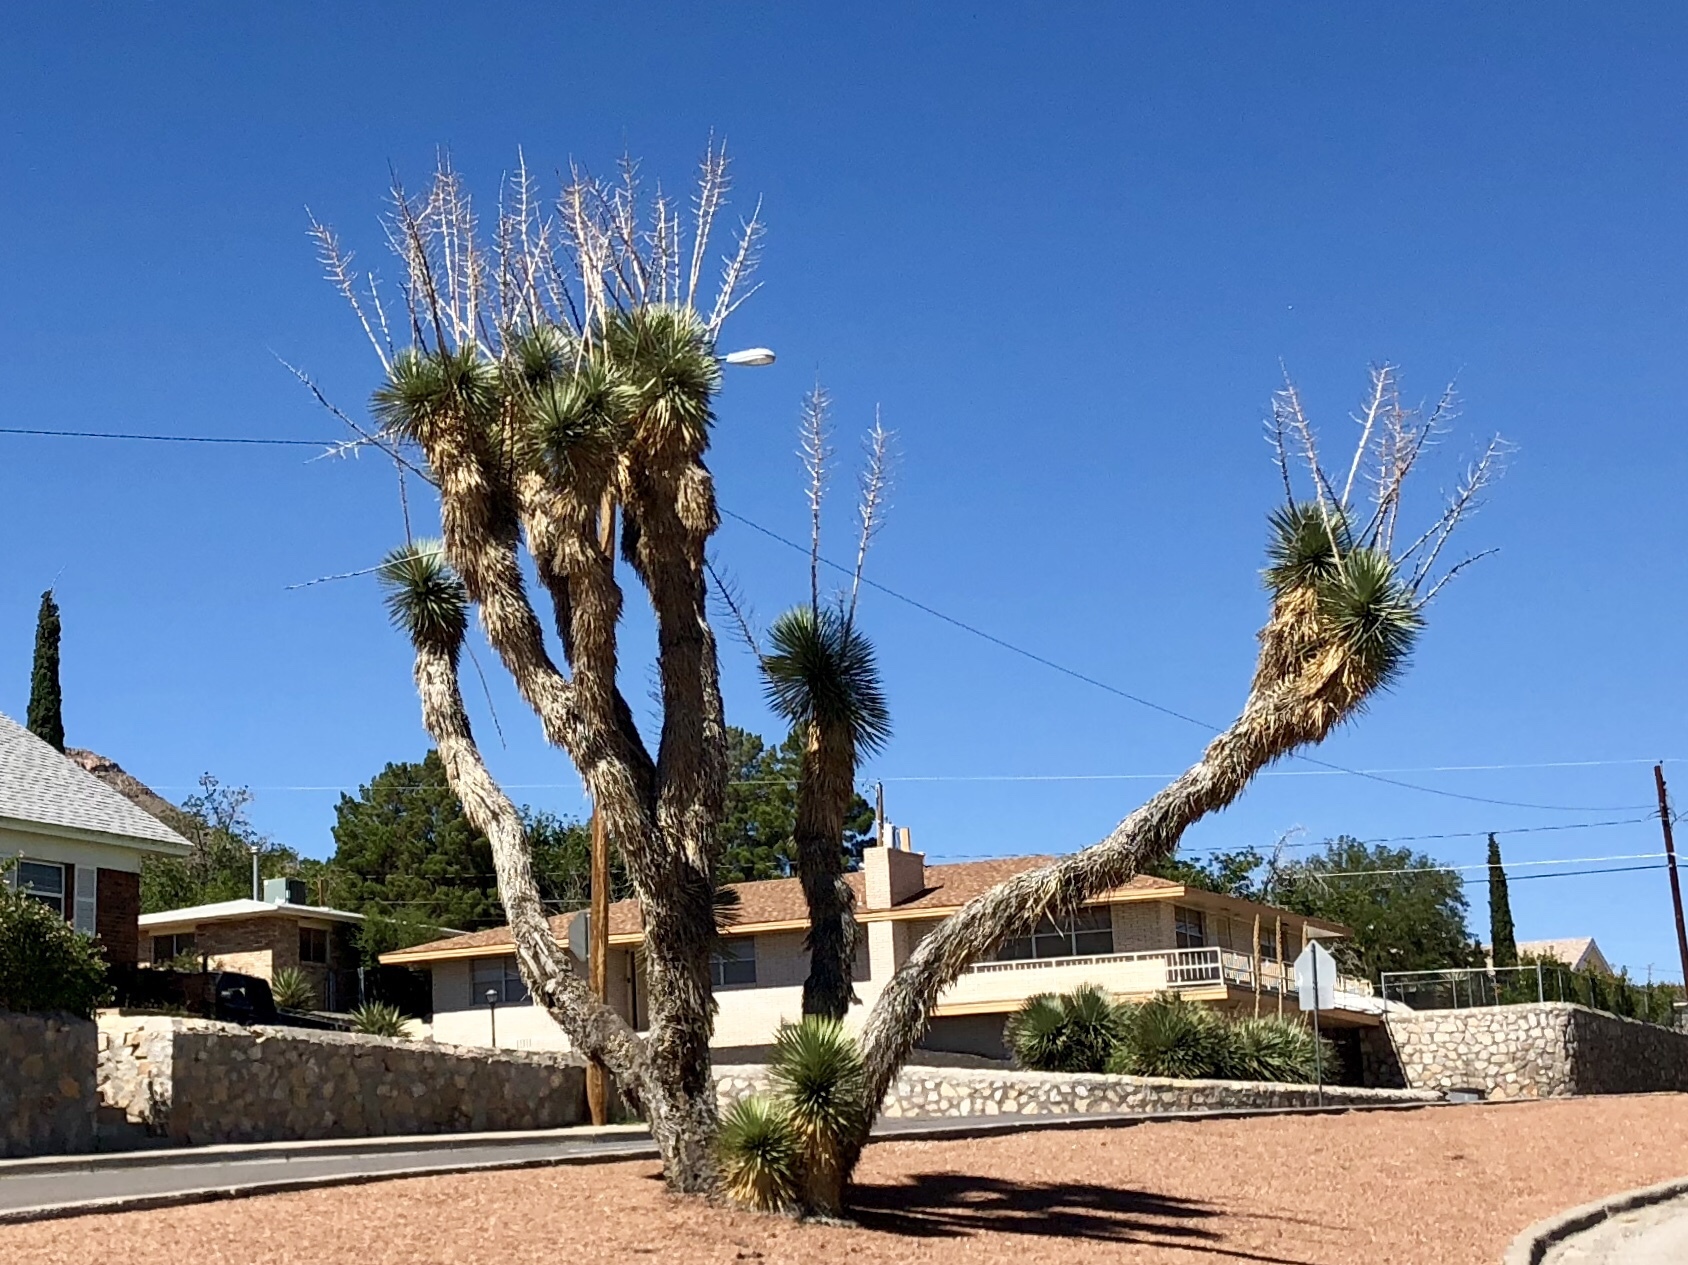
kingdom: Plantae
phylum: Tracheophyta
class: Liliopsida
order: Asparagales
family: Asparagaceae
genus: Yucca
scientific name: Yucca elata
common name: Palmella
